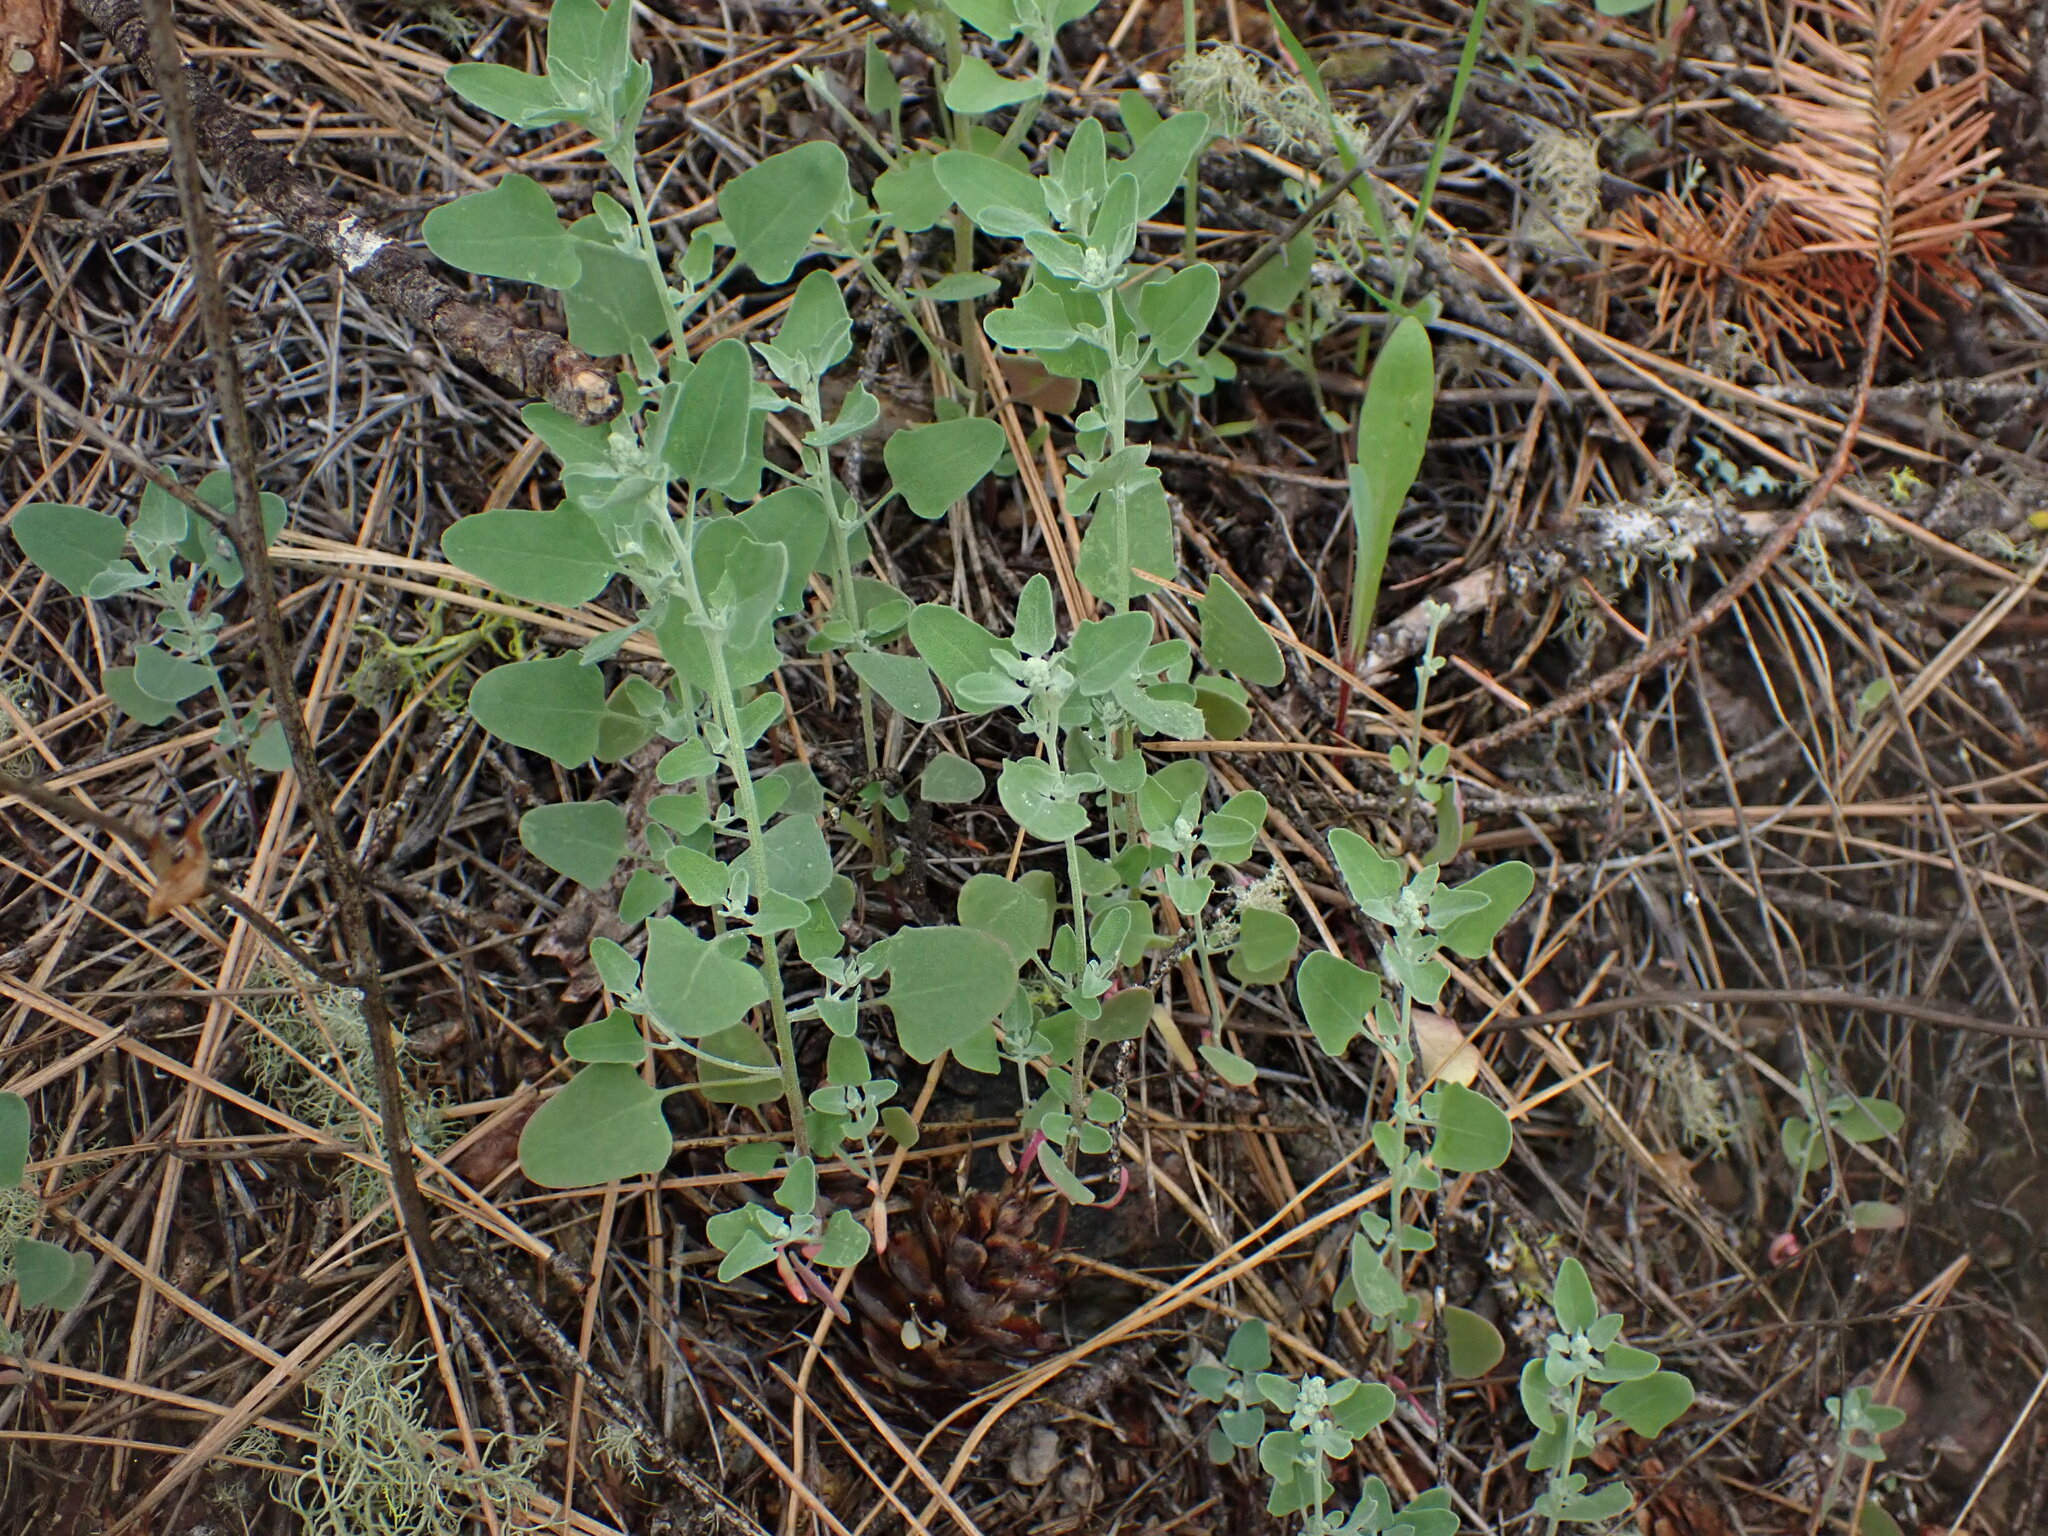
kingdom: Plantae
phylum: Tracheophyta
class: Magnoliopsida
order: Caryophyllales
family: Amaranthaceae
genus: Chenopodium
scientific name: Chenopodium album
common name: Fat-hen
